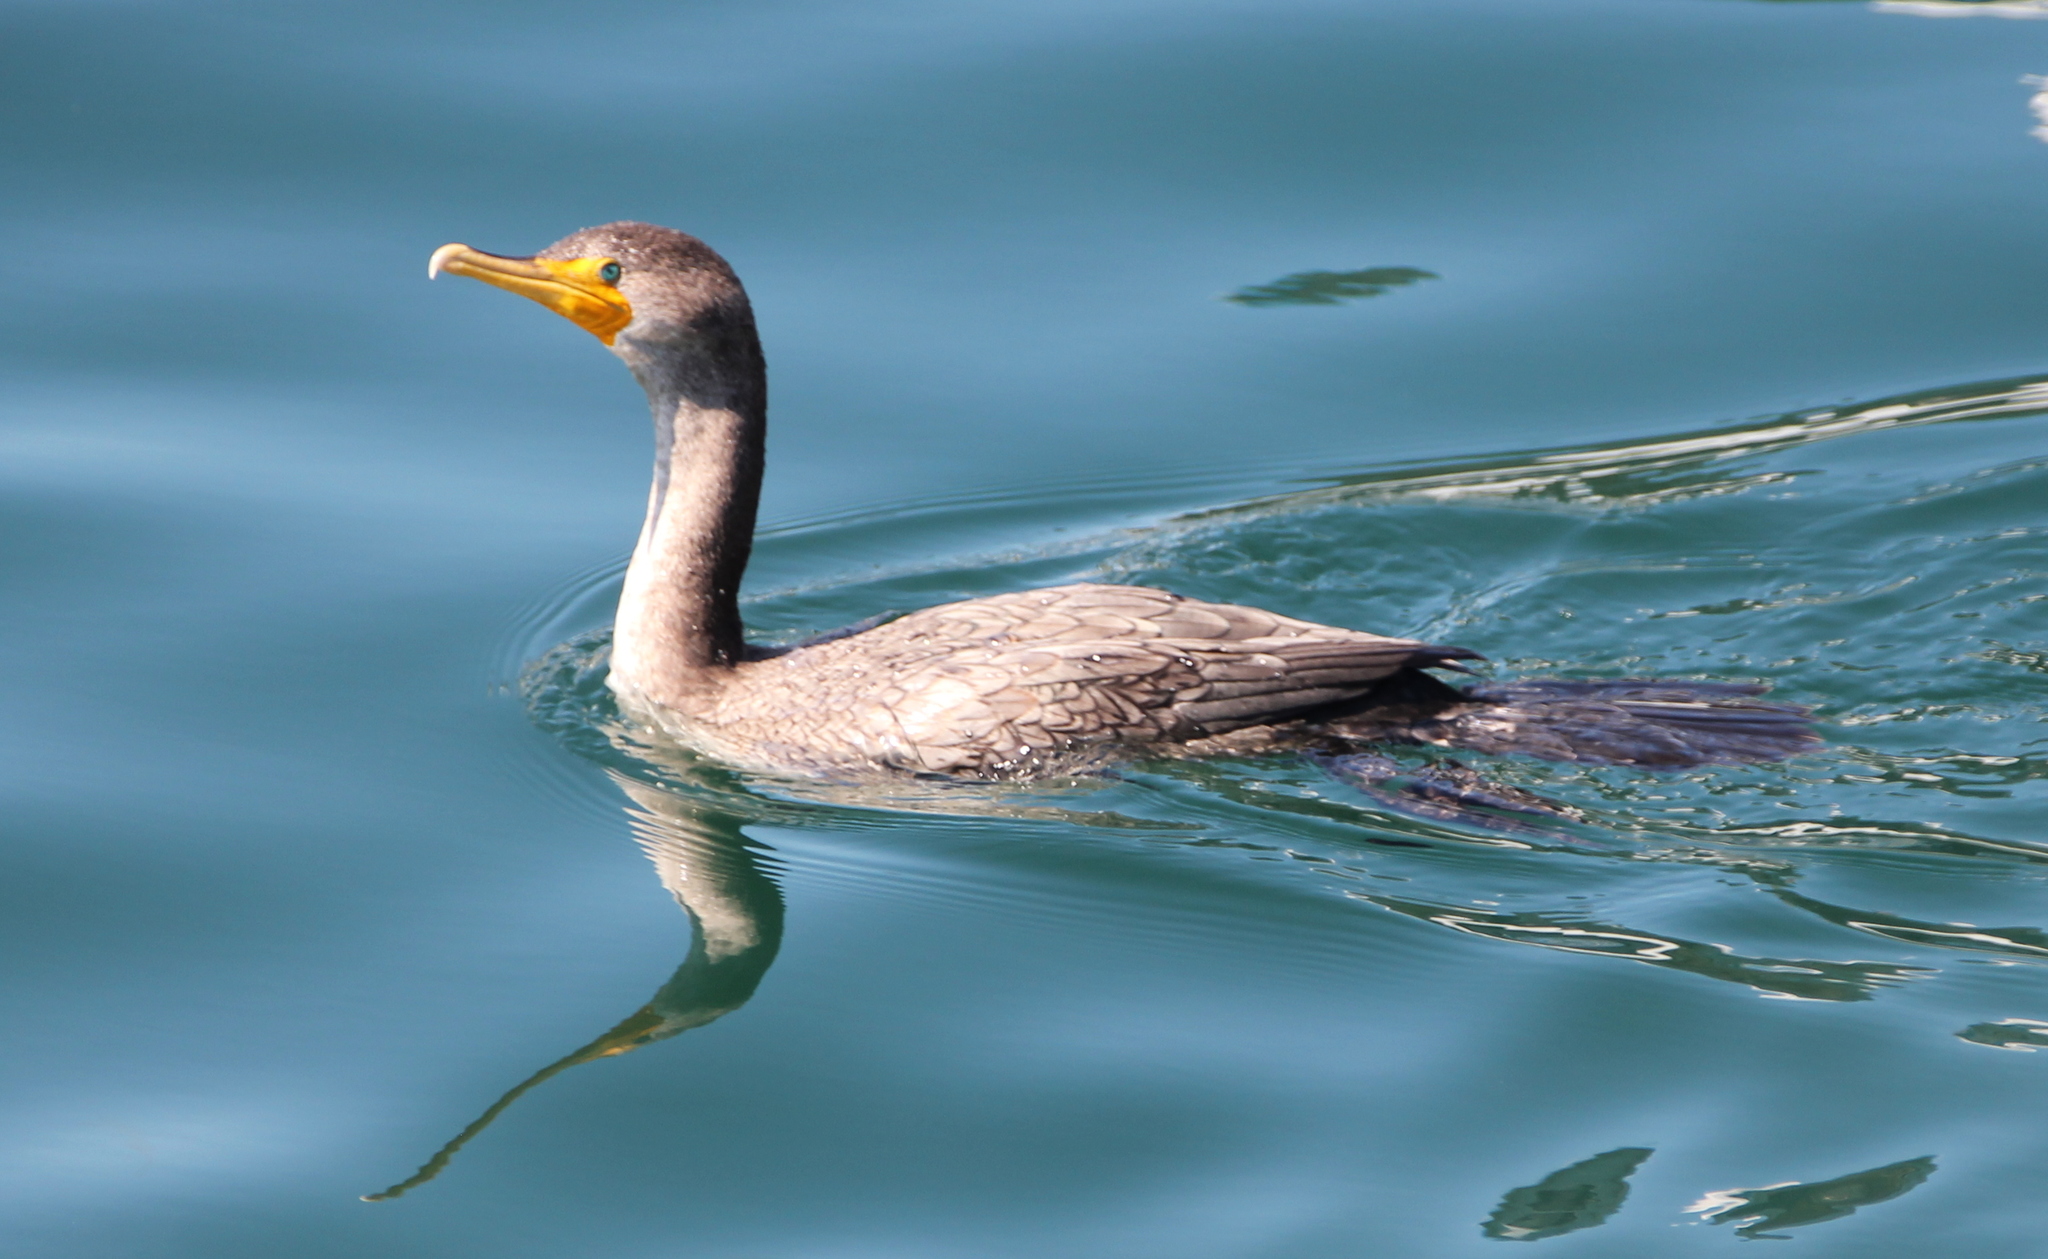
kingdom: Animalia
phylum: Chordata
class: Aves
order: Suliformes
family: Phalacrocoracidae
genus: Phalacrocorax
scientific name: Phalacrocorax auritus
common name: Double-crested cormorant
